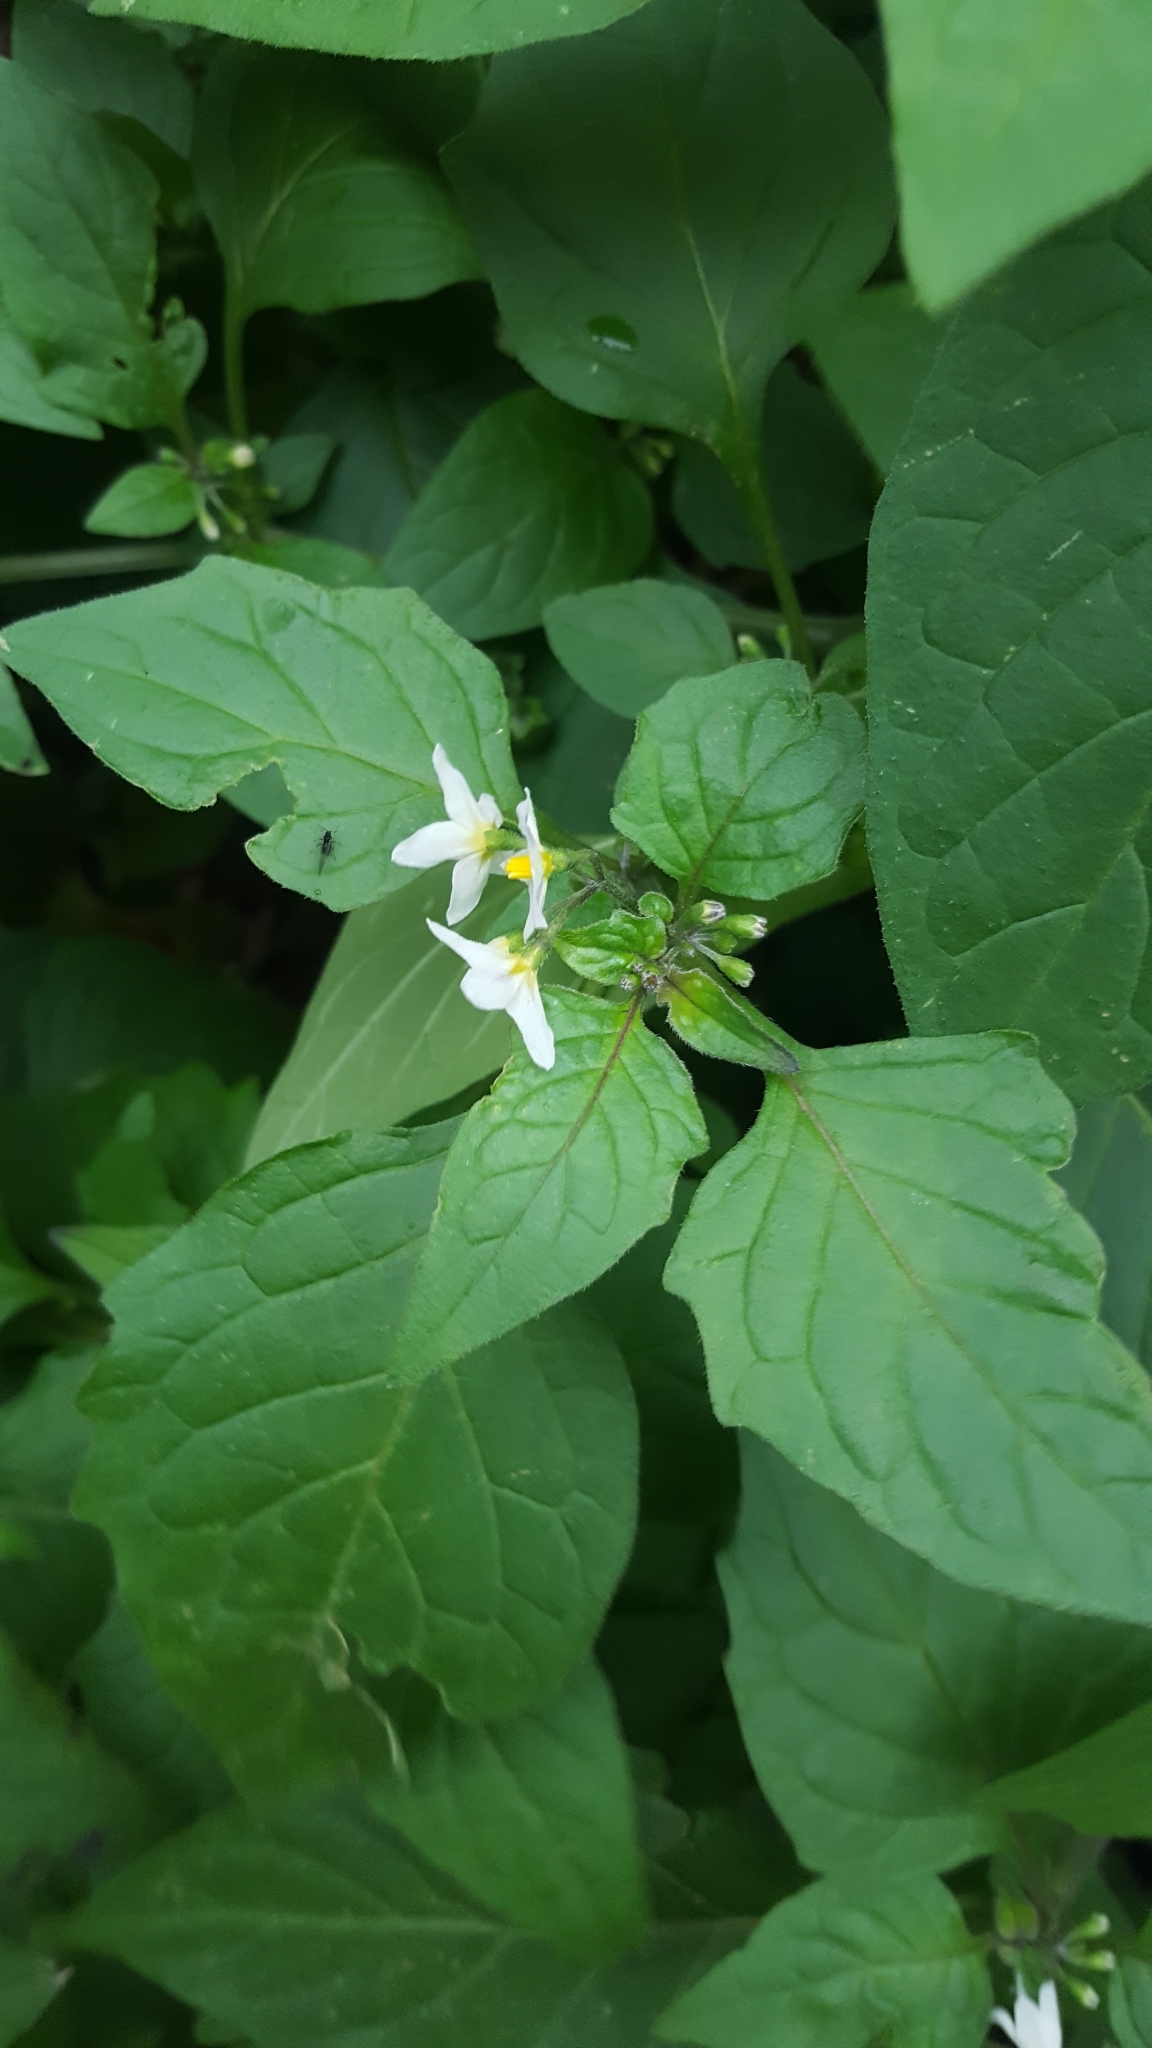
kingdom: Plantae
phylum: Tracheophyta
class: Magnoliopsida
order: Solanales
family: Solanaceae
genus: Solanum
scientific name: Solanum nigrum
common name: Black nightshade
